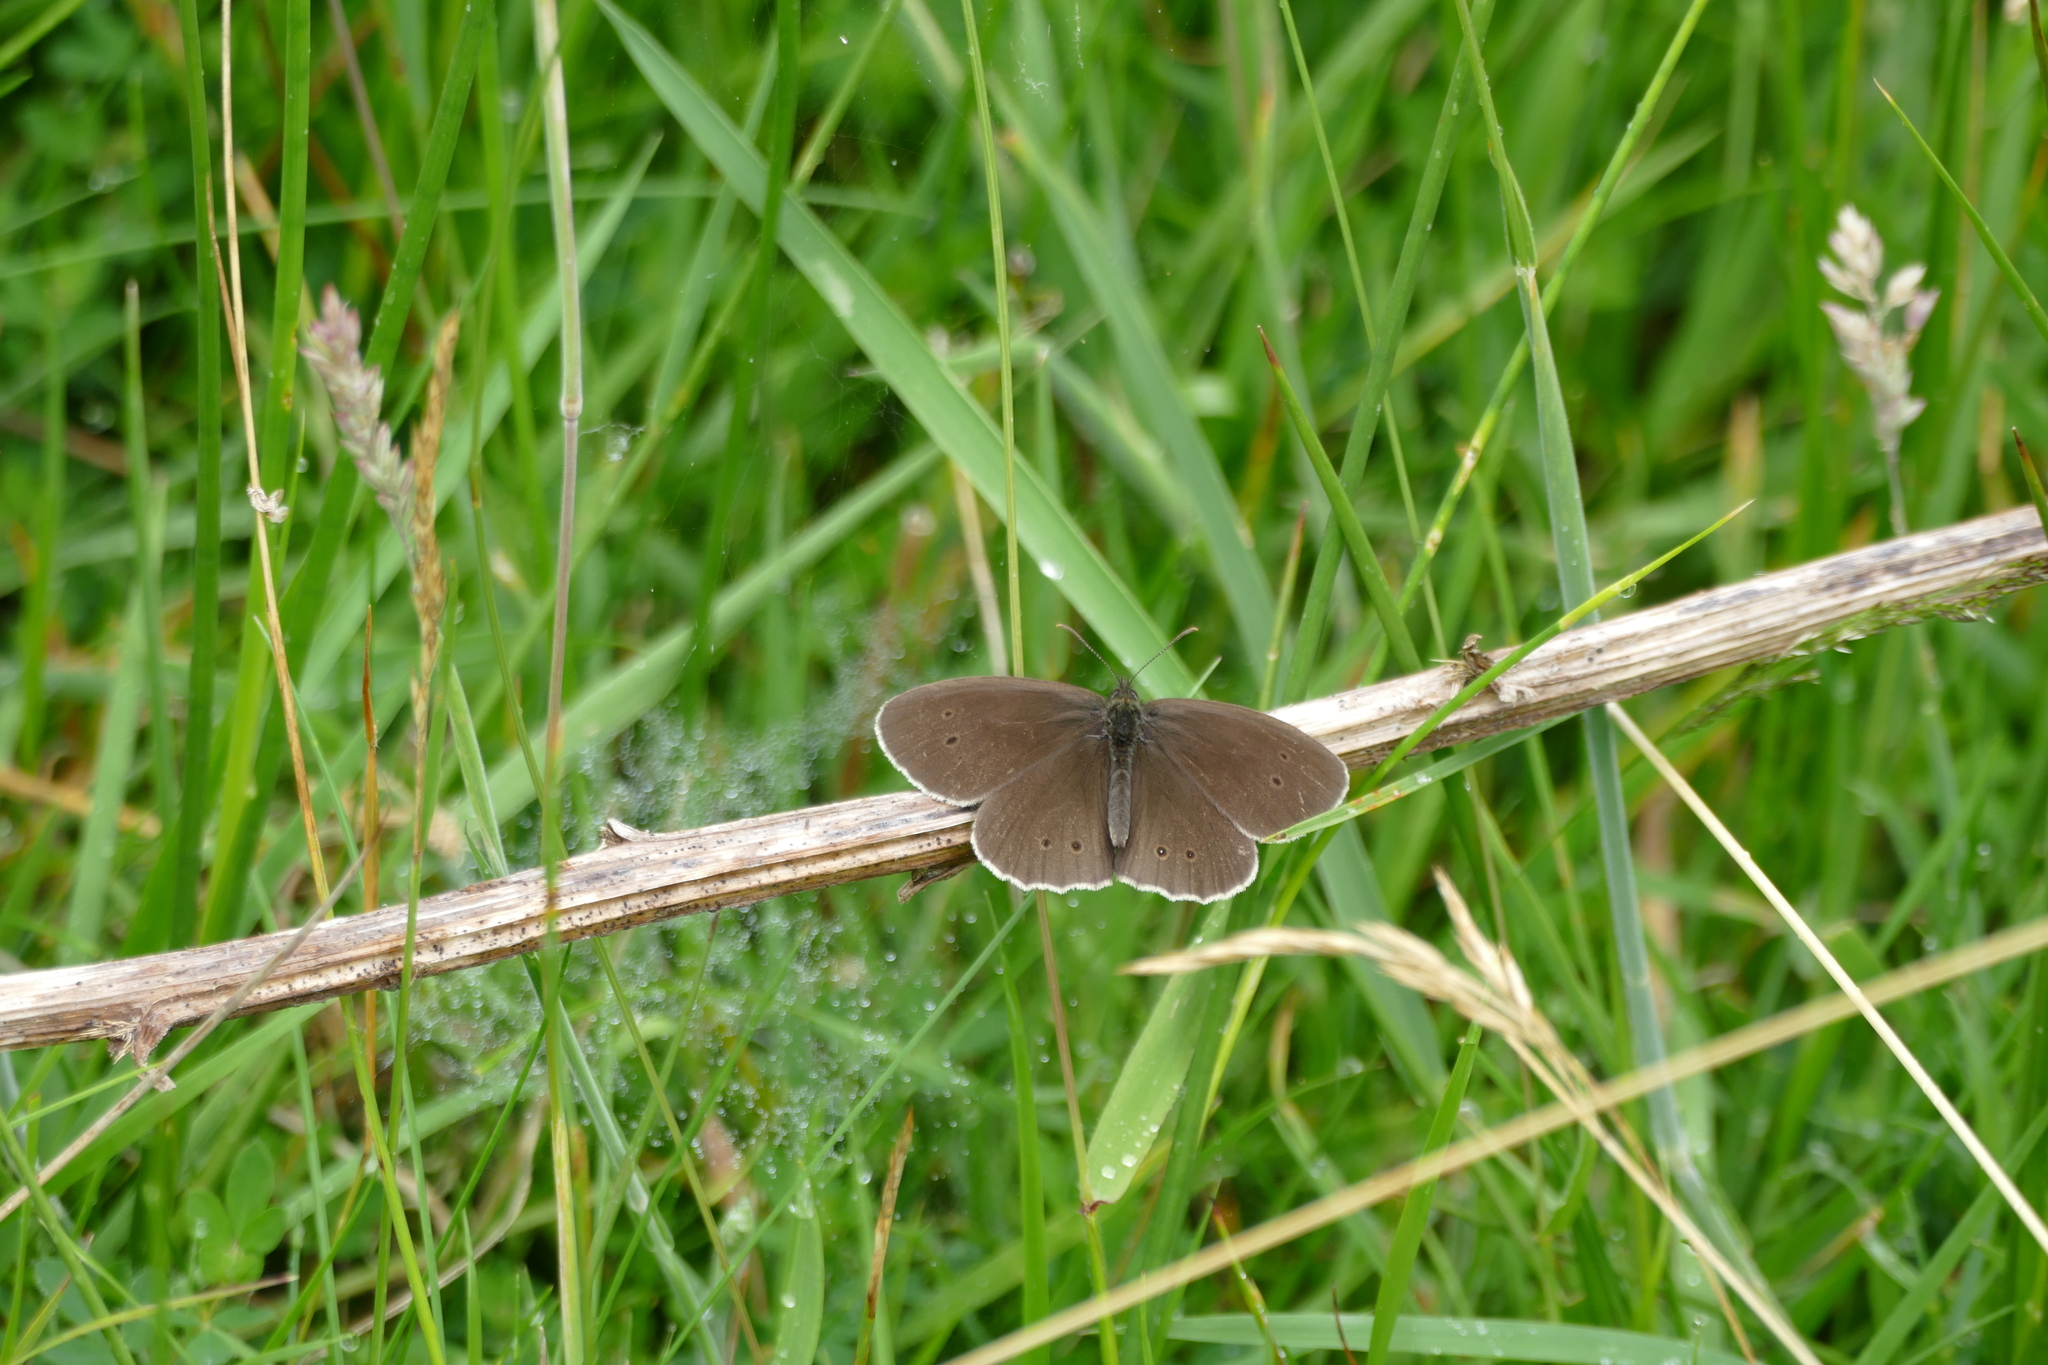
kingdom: Animalia
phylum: Arthropoda
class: Insecta
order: Lepidoptera
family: Nymphalidae
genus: Aphantopus
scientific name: Aphantopus hyperantus
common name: Ringlet
